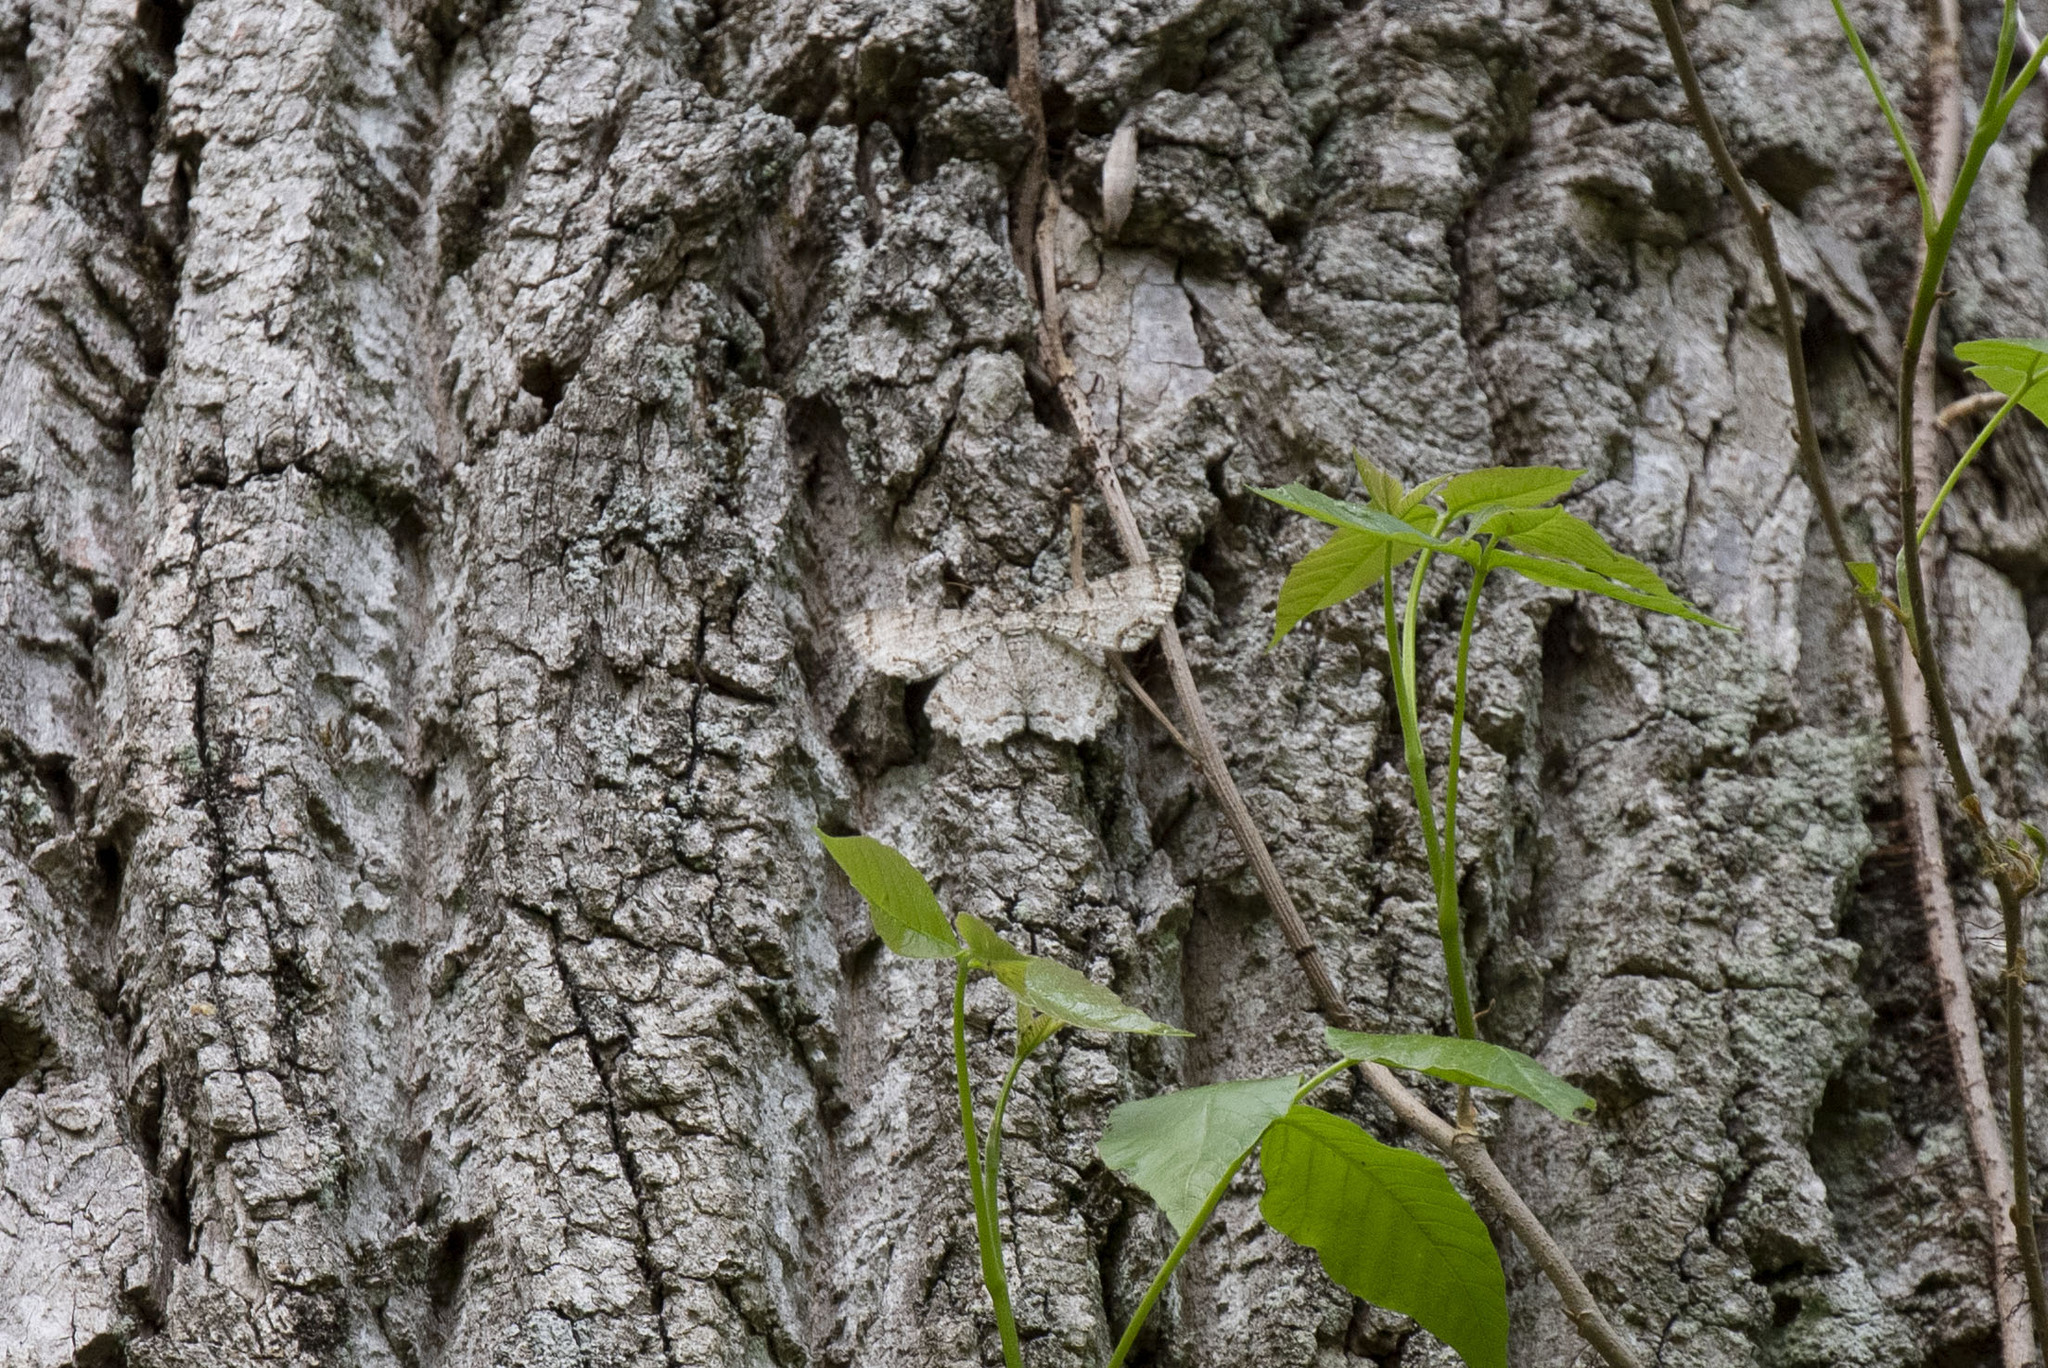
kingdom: Animalia
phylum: Arthropoda
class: Insecta
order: Lepidoptera
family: Geometridae
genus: Epimecis
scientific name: Epimecis hortaria
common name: Tulip-tree beauty
